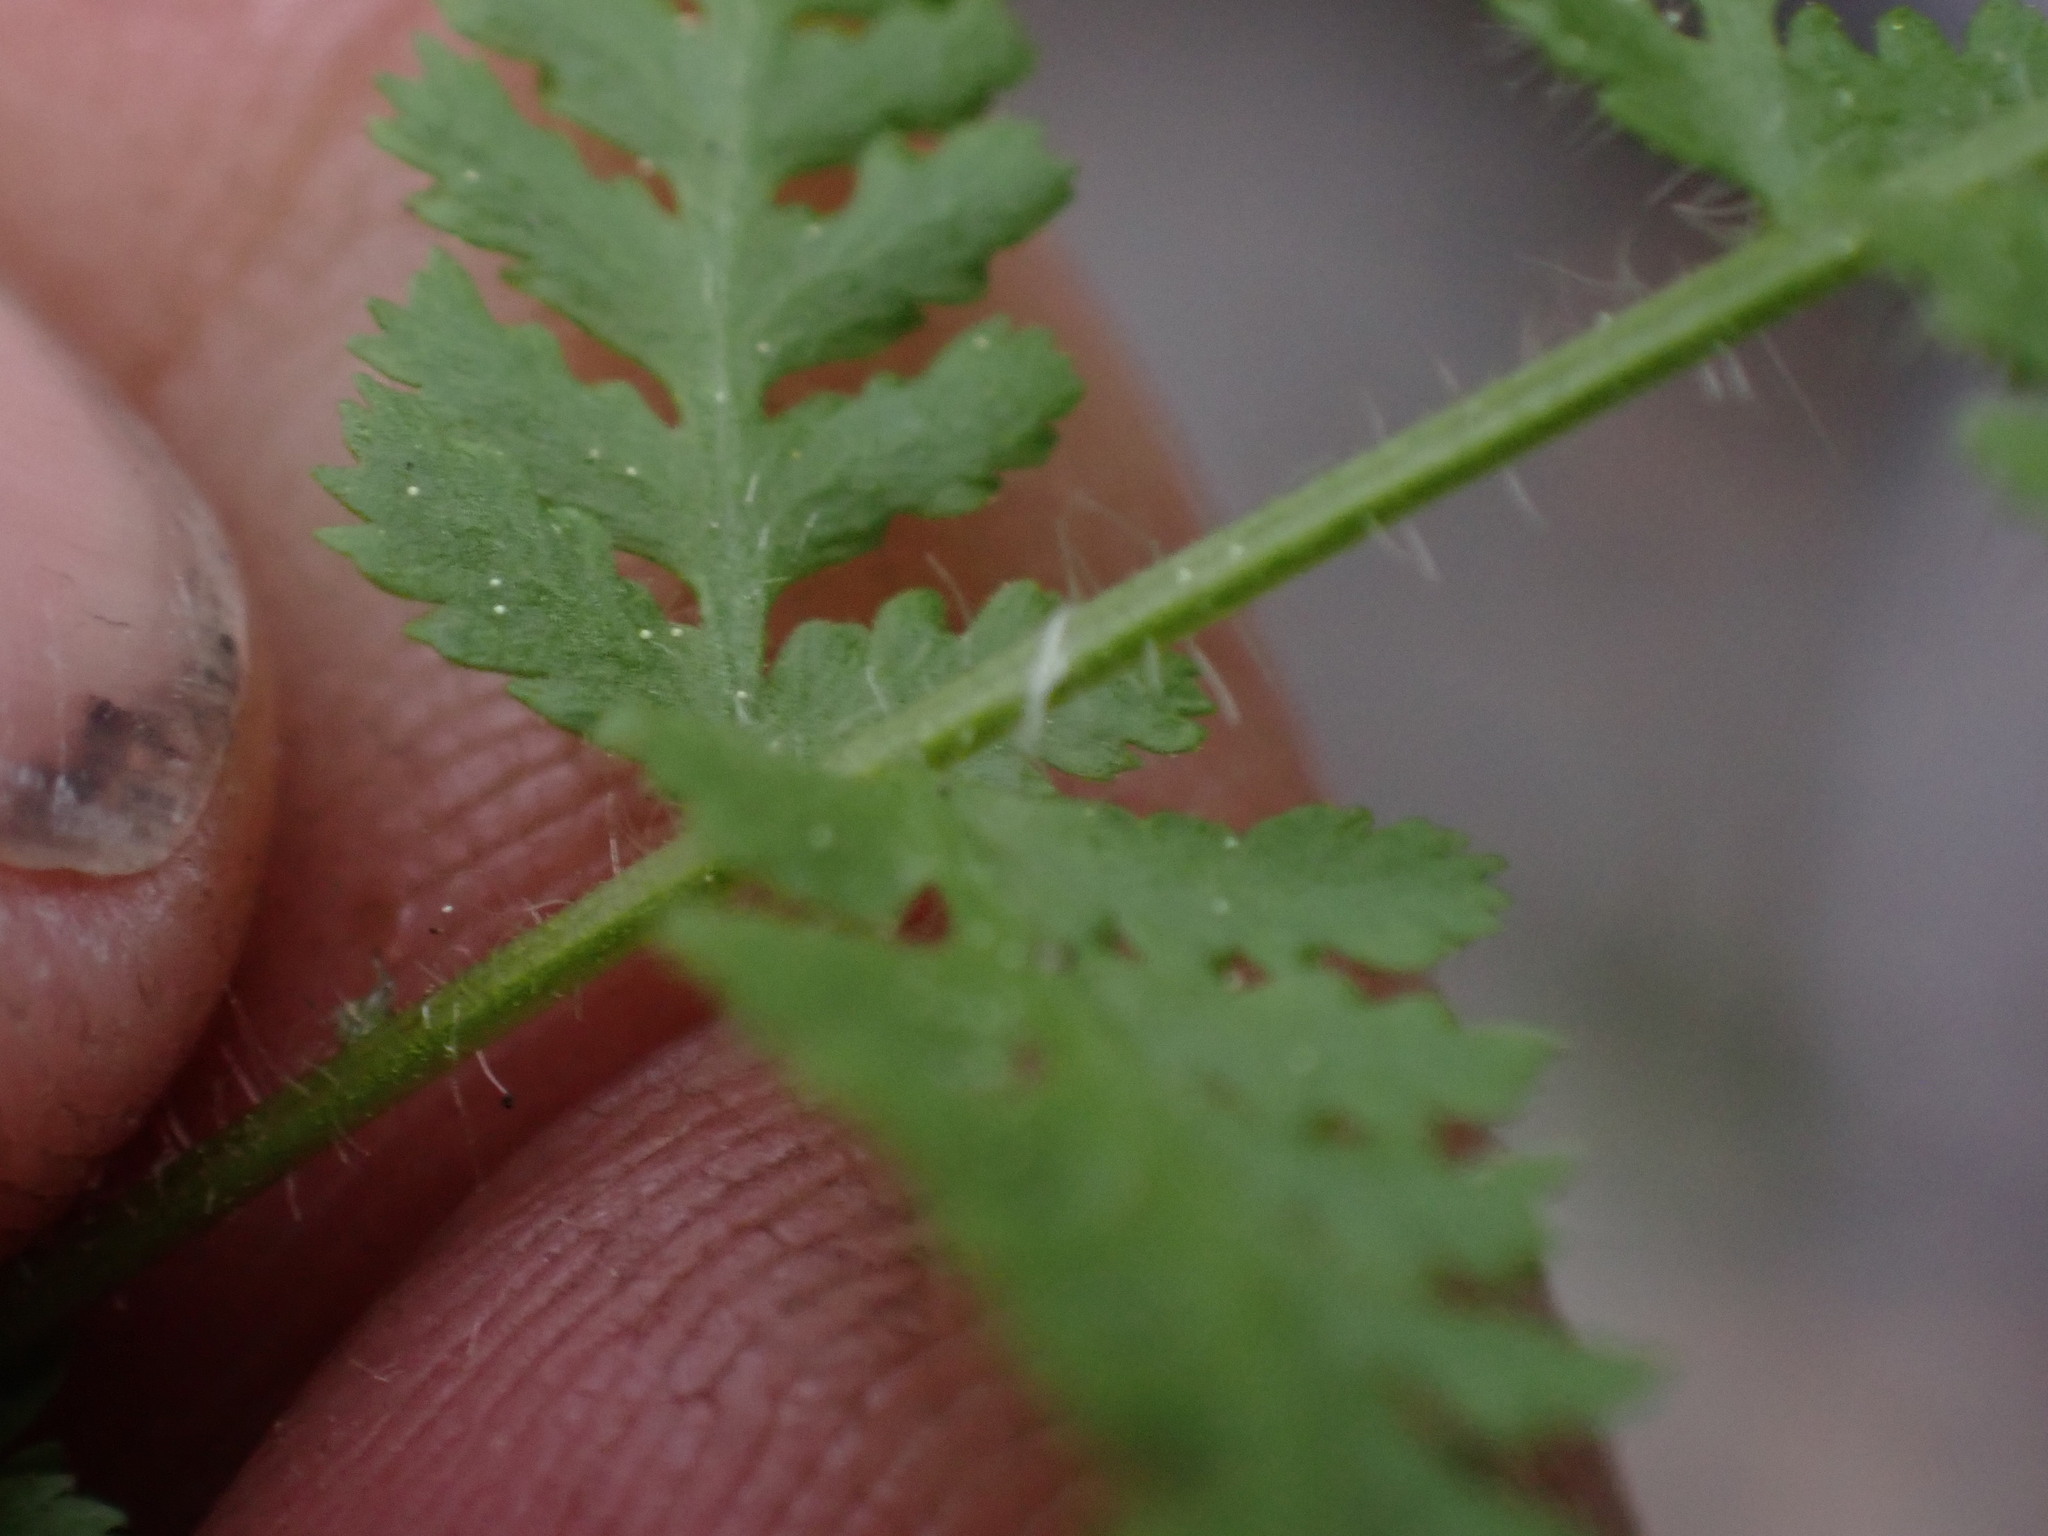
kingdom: Plantae
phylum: Tracheophyta
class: Polypodiopsida
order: Polypodiales
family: Woodsiaceae
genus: Physematium
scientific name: Physematium scopulinum
